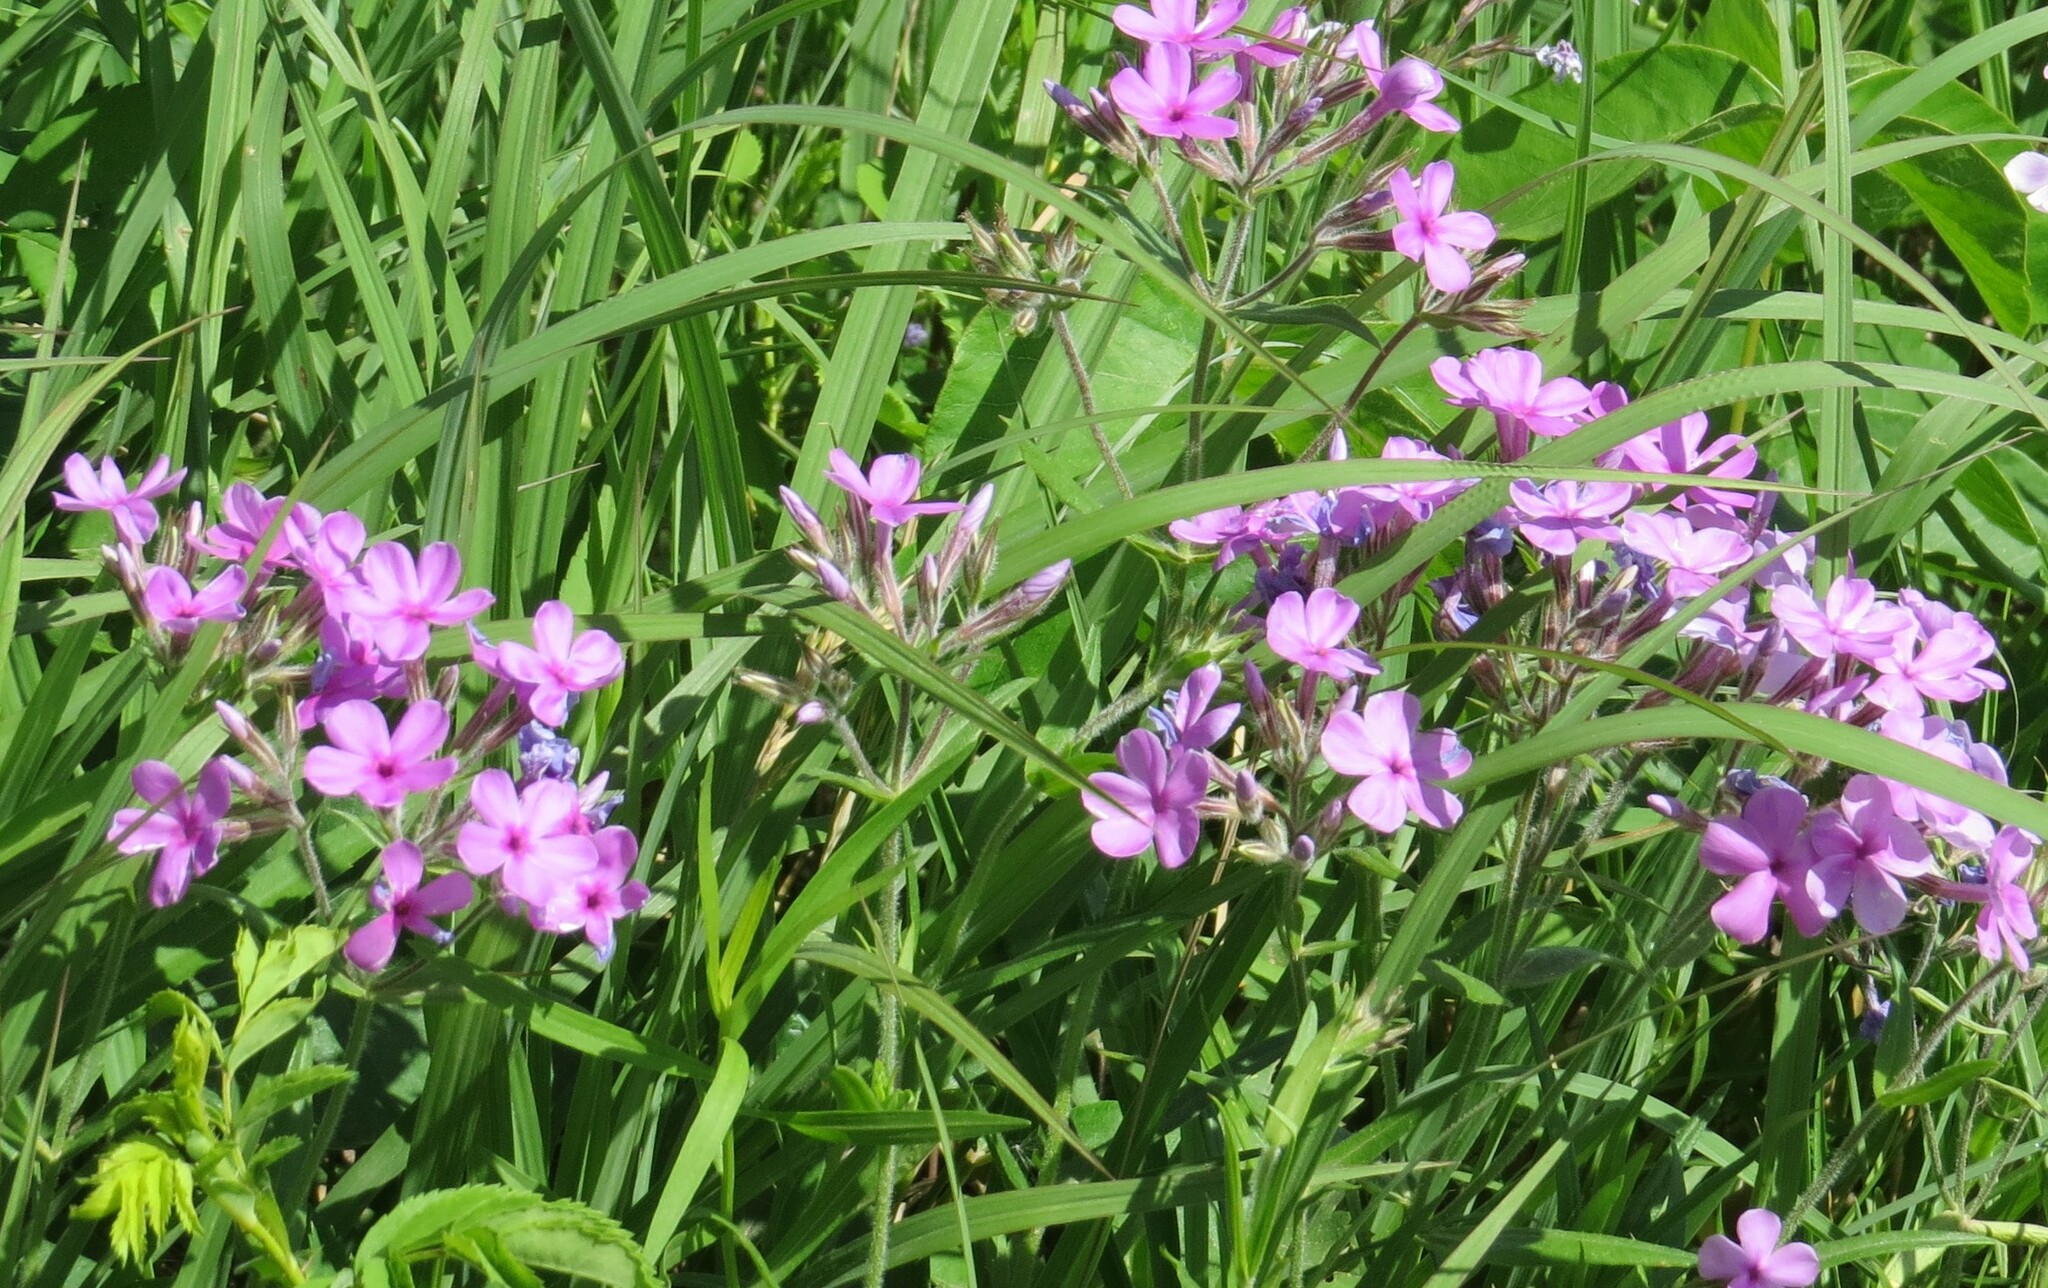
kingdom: Plantae
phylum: Tracheophyta
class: Magnoliopsida
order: Ericales
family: Polemoniaceae
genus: Phlox
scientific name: Phlox pilosa
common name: Prairie phlox
